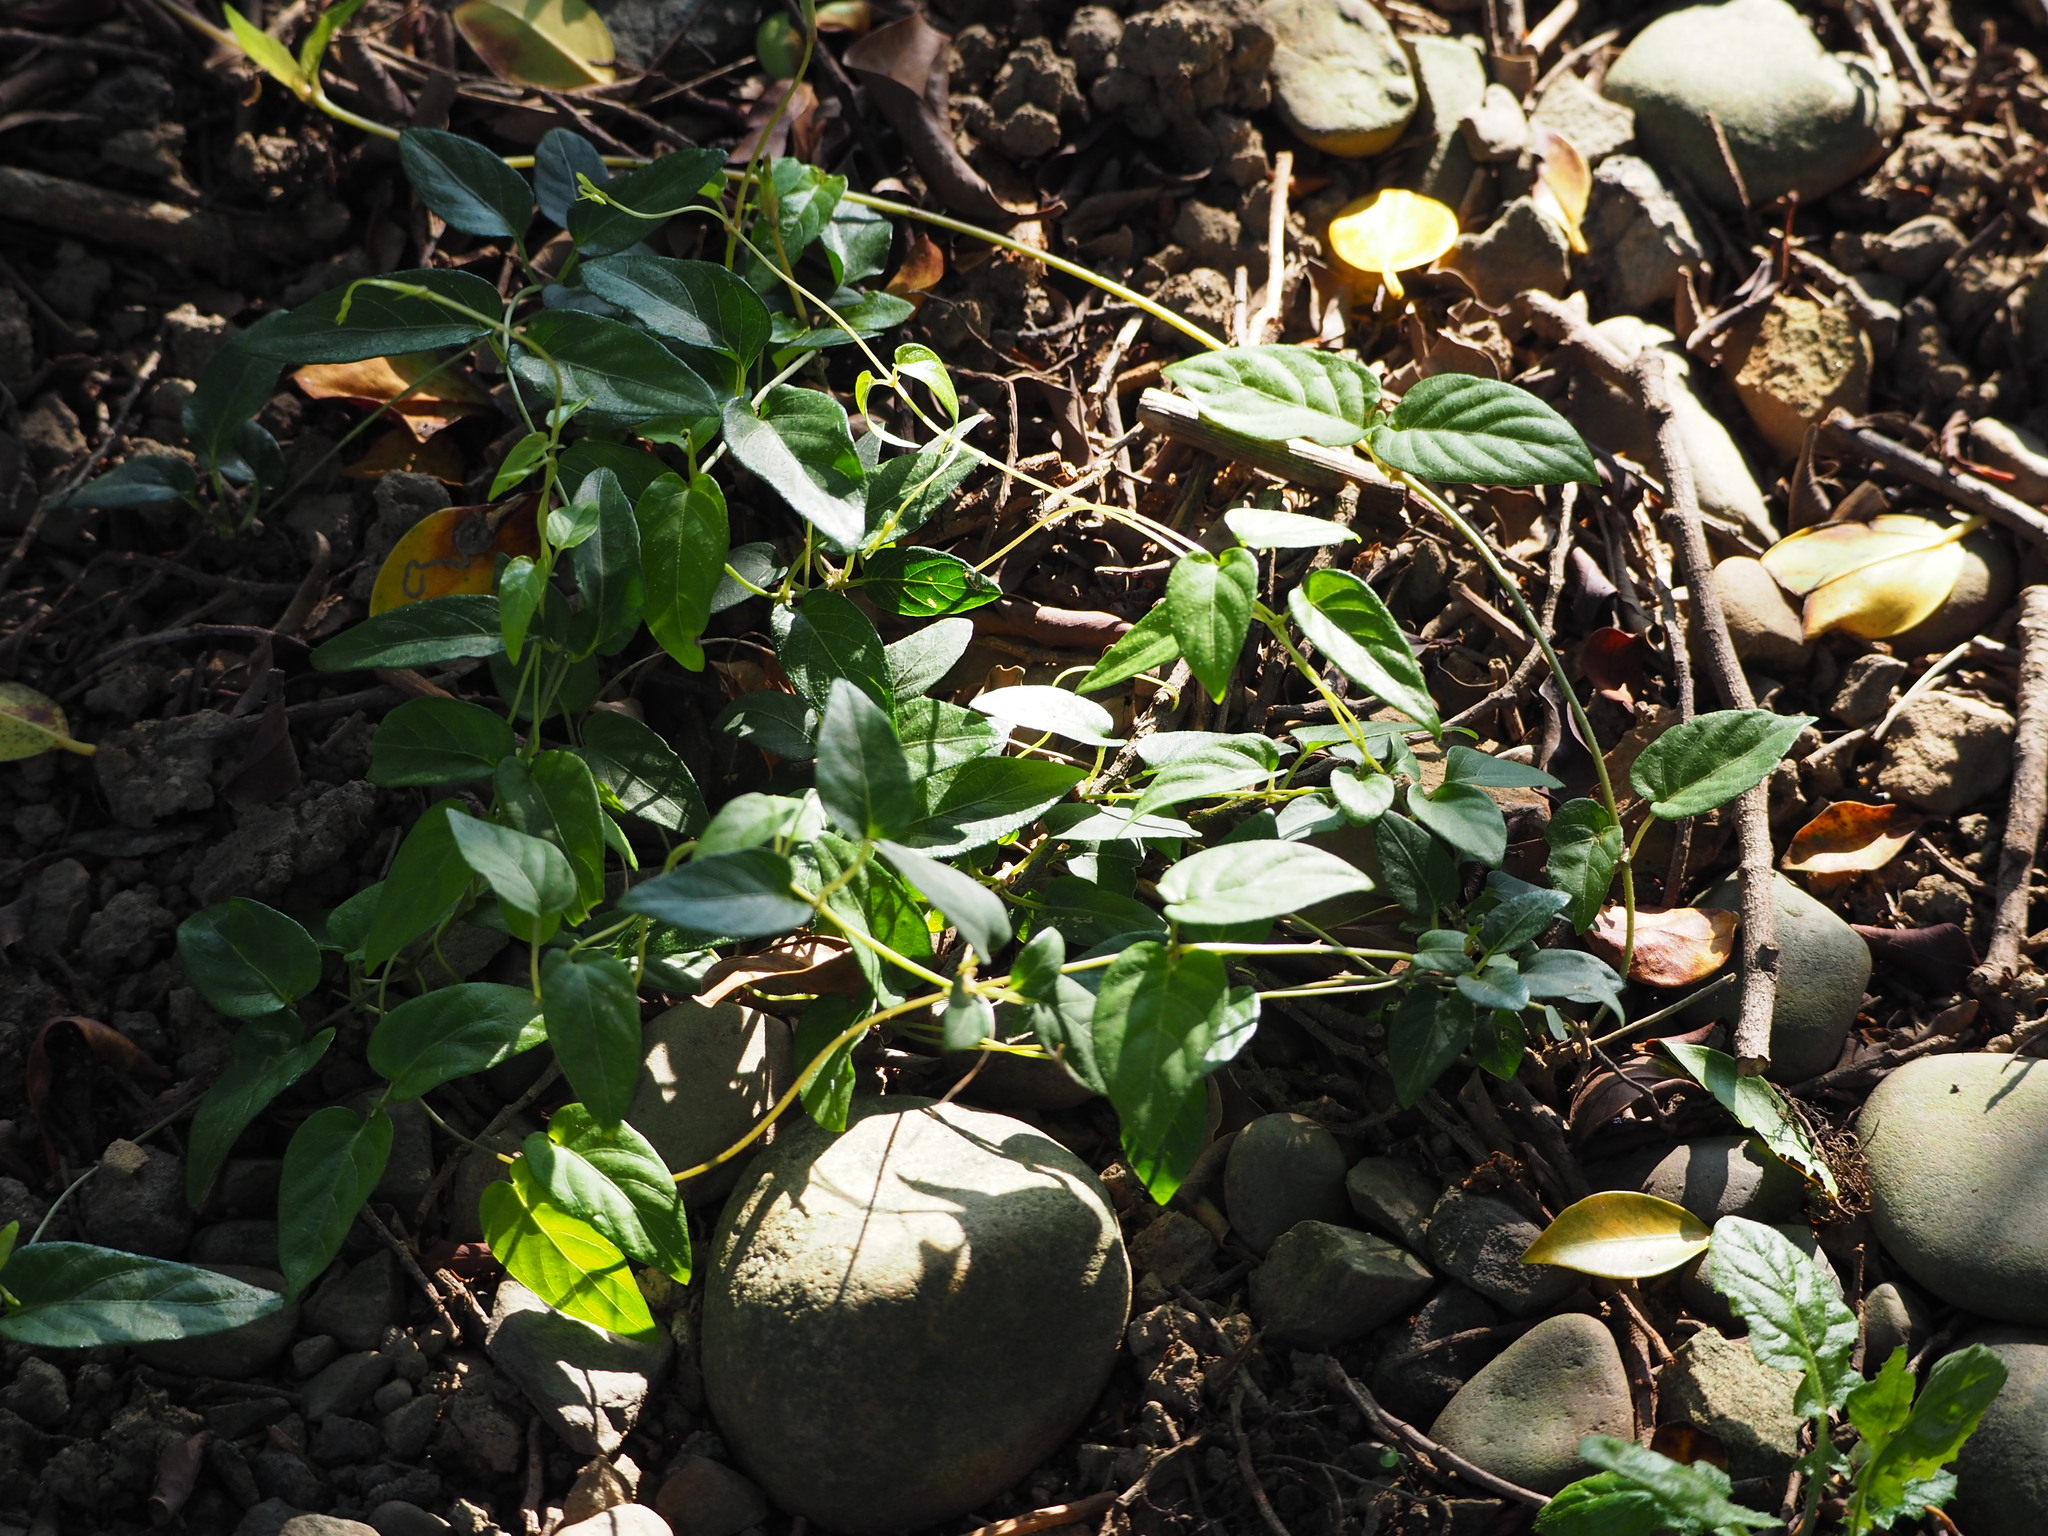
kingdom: Plantae
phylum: Tracheophyta
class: Magnoliopsida
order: Gentianales
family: Rubiaceae
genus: Paederia
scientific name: Paederia foetida
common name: Stinkvine
